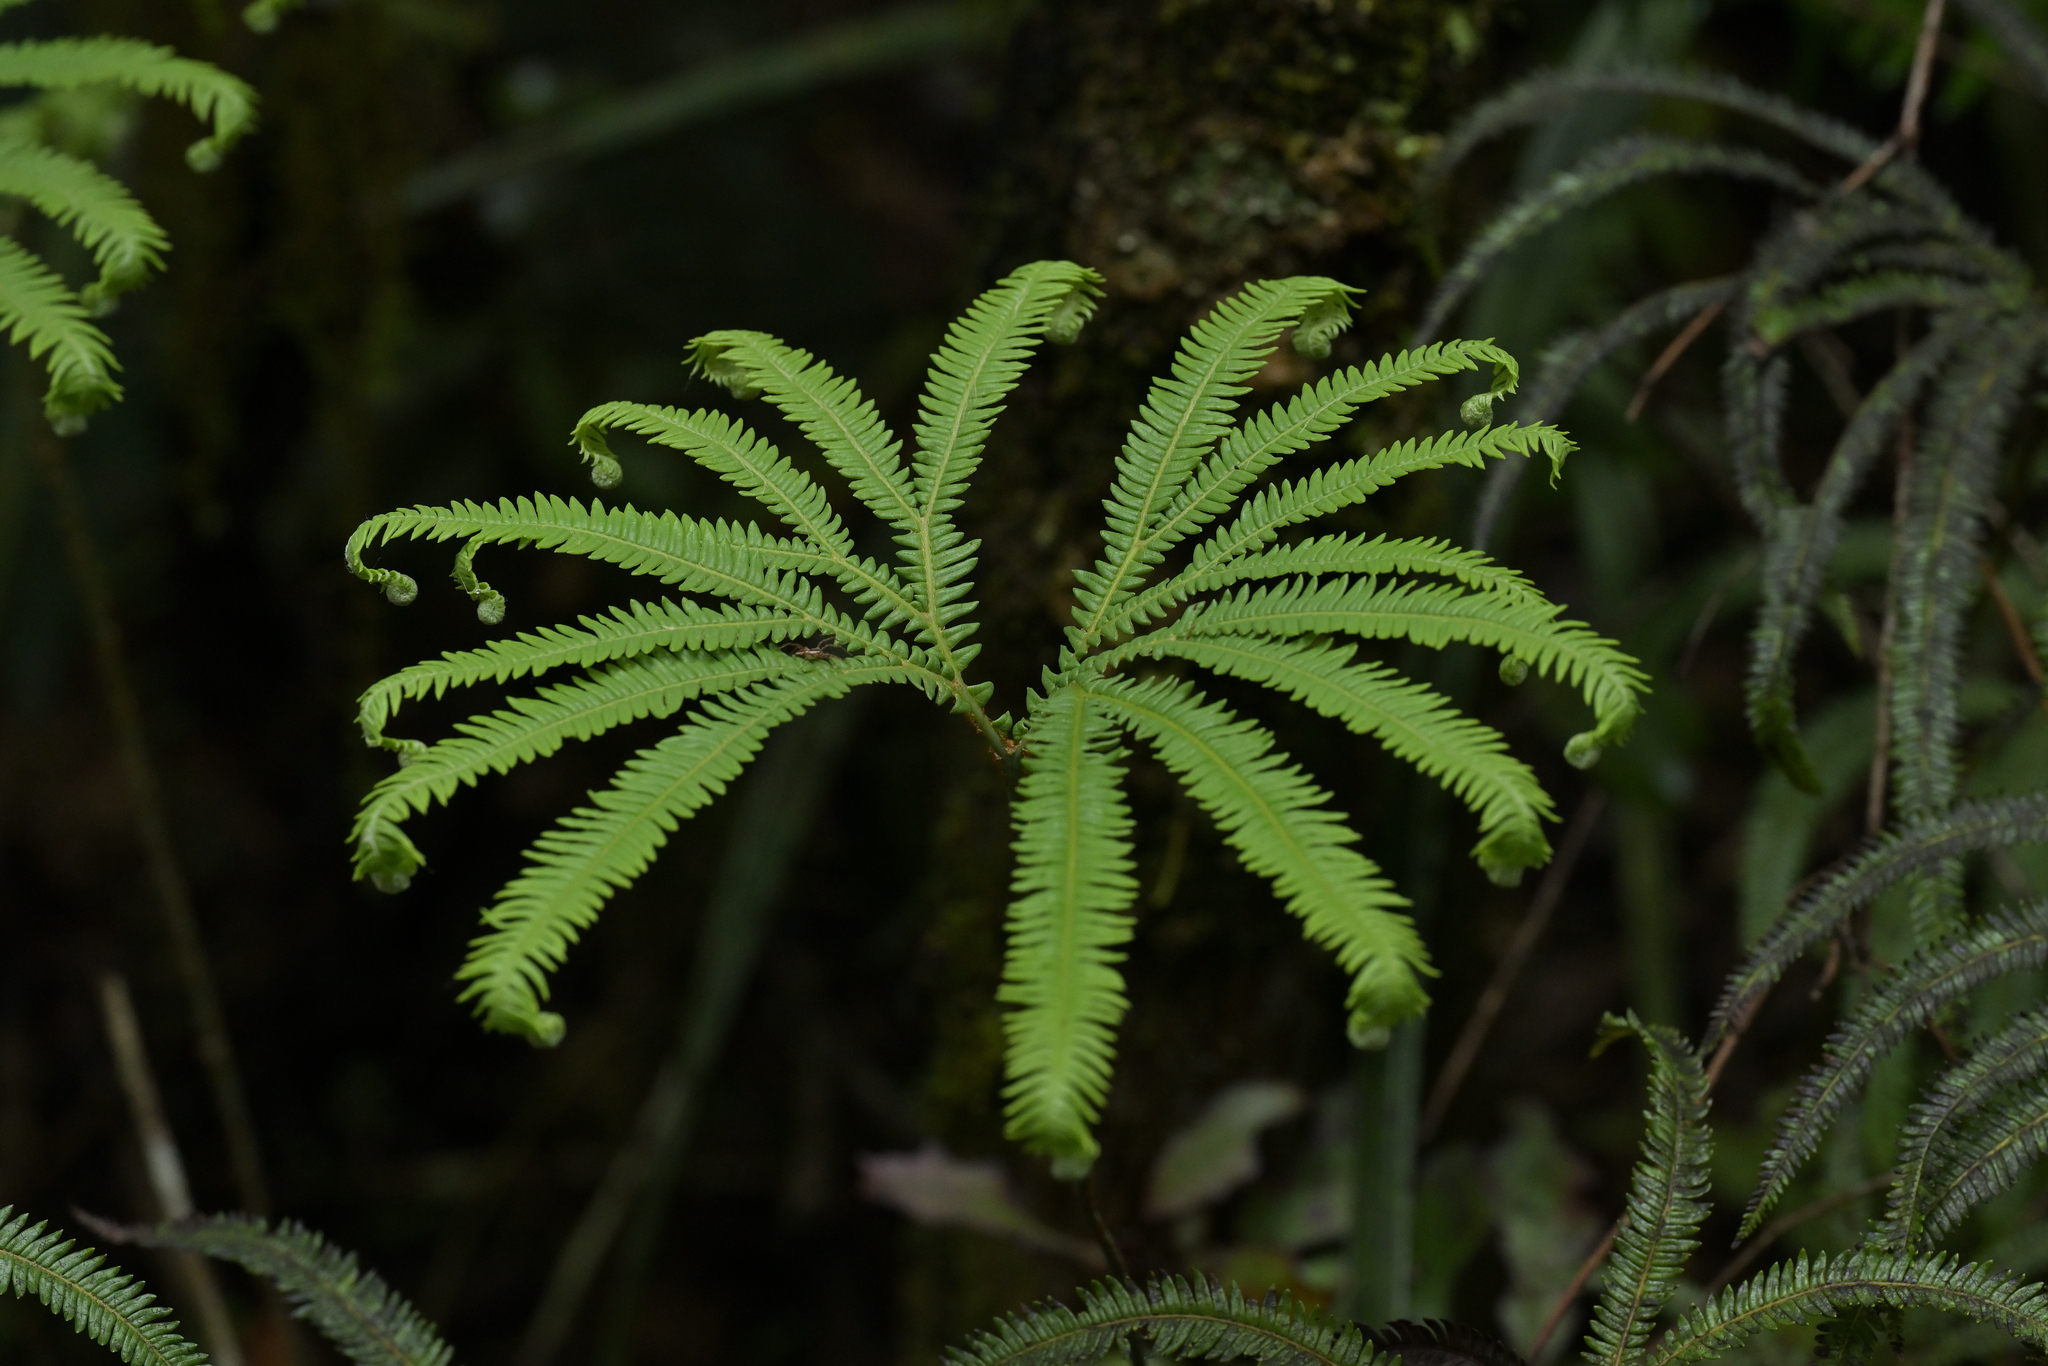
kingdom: Plantae
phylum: Tracheophyta
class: Polypodiopsida
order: Gleicheniales
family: Gleicheniaceae
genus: Sticherus
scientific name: Sticherus cunninghamii
